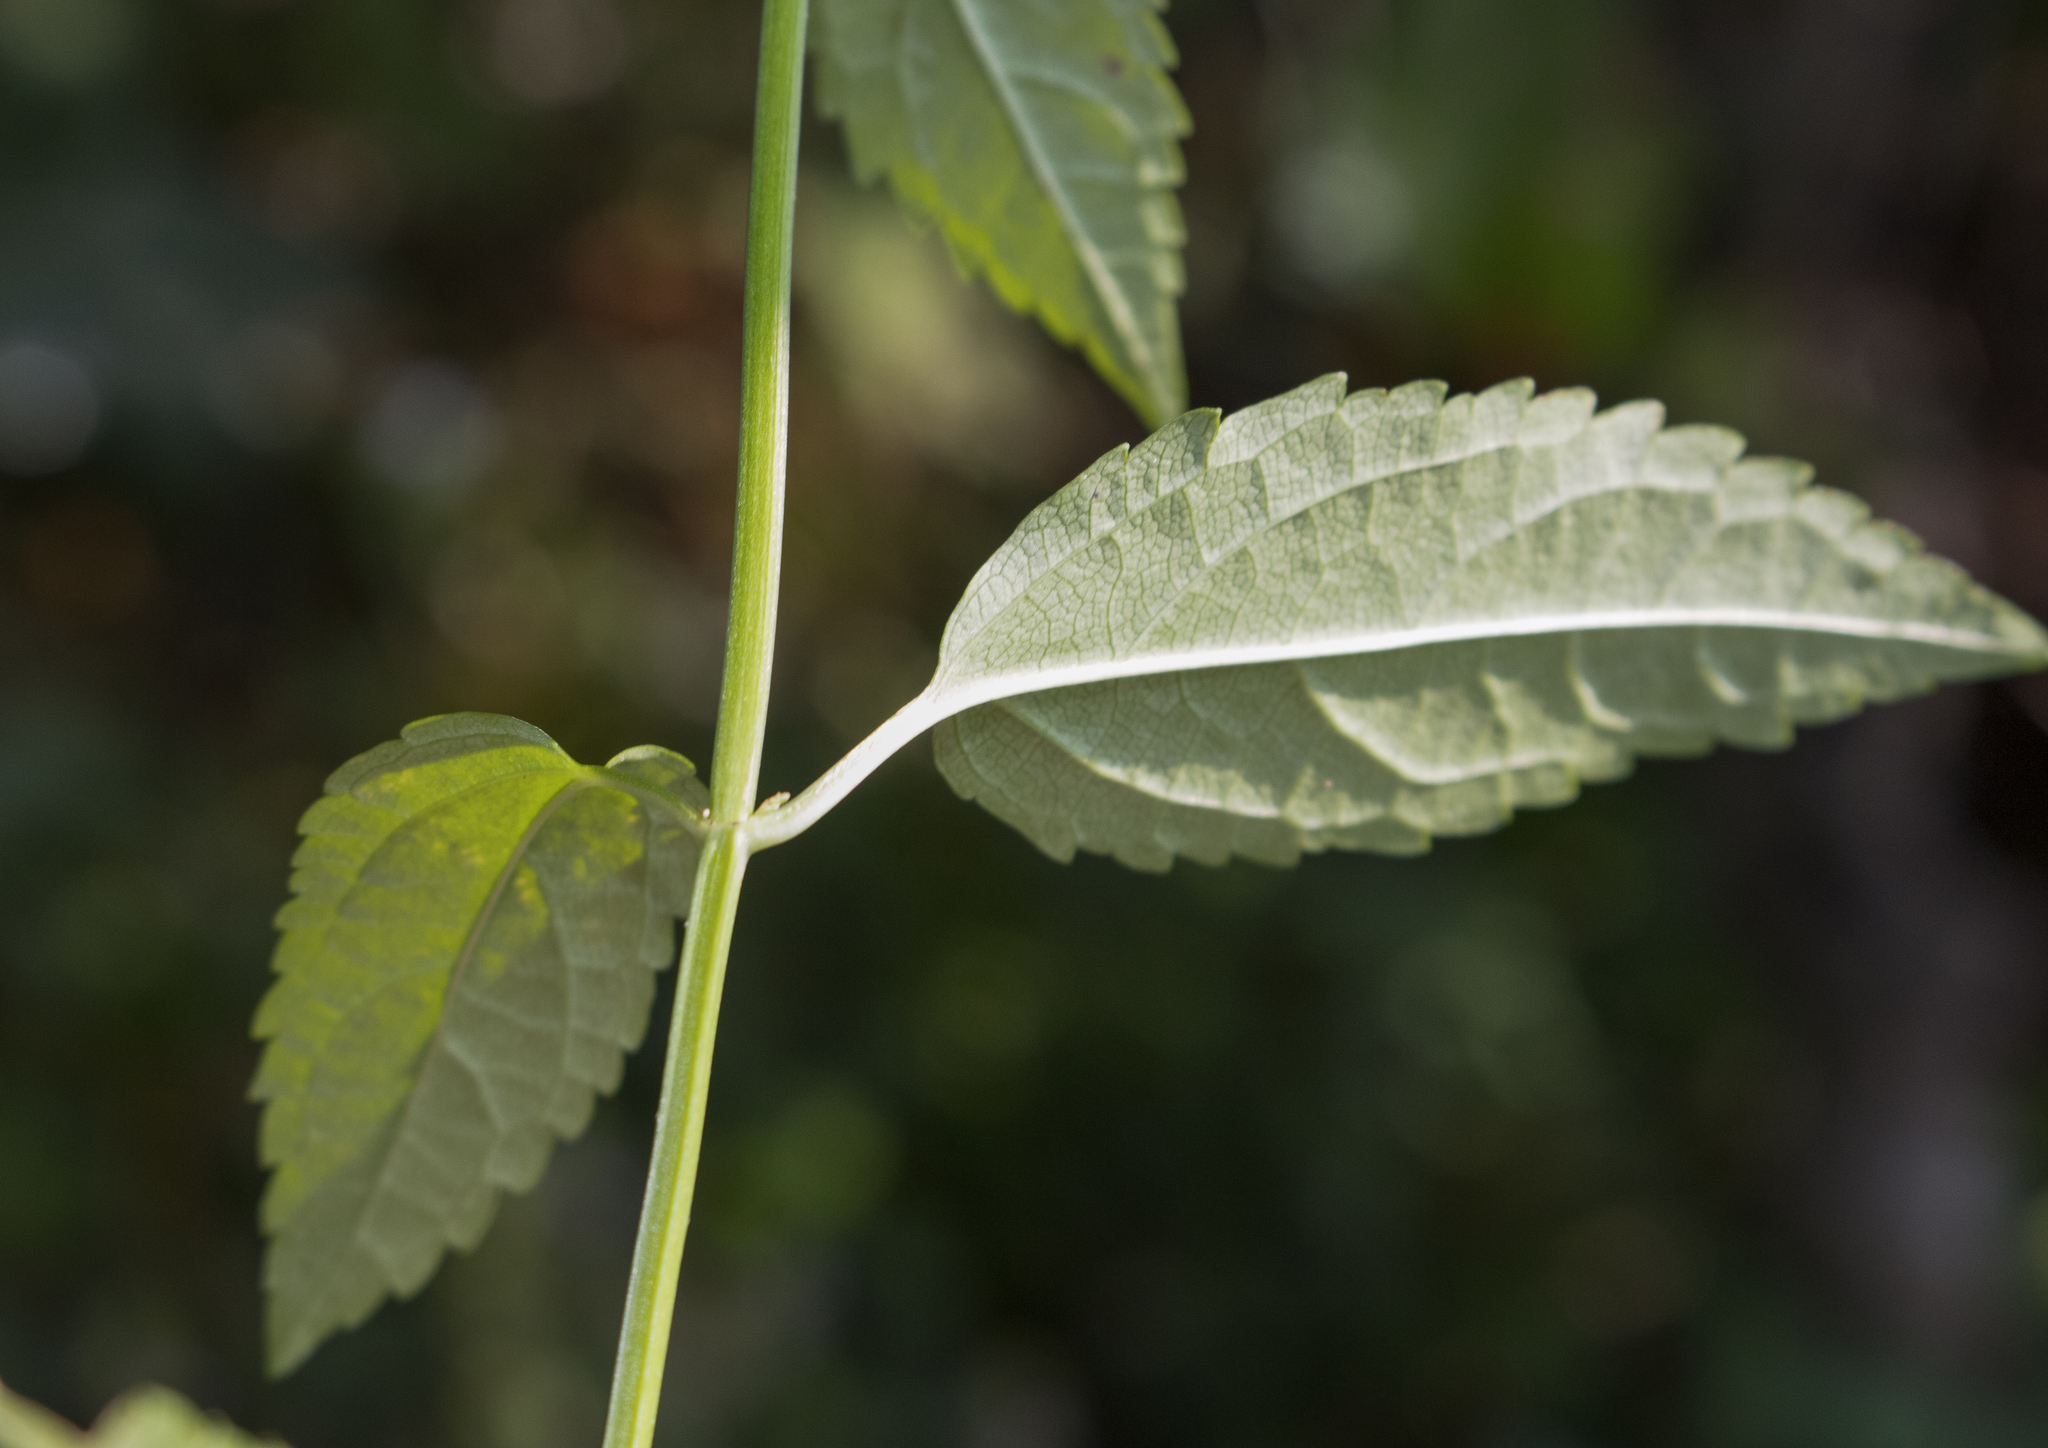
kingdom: Plantae
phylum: Tracheophyta
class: Magnoliopsida
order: Lamiales
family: Lamiaceae
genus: Stachys
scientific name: Stachys tenuifolia
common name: Smooth hedge-nettle
